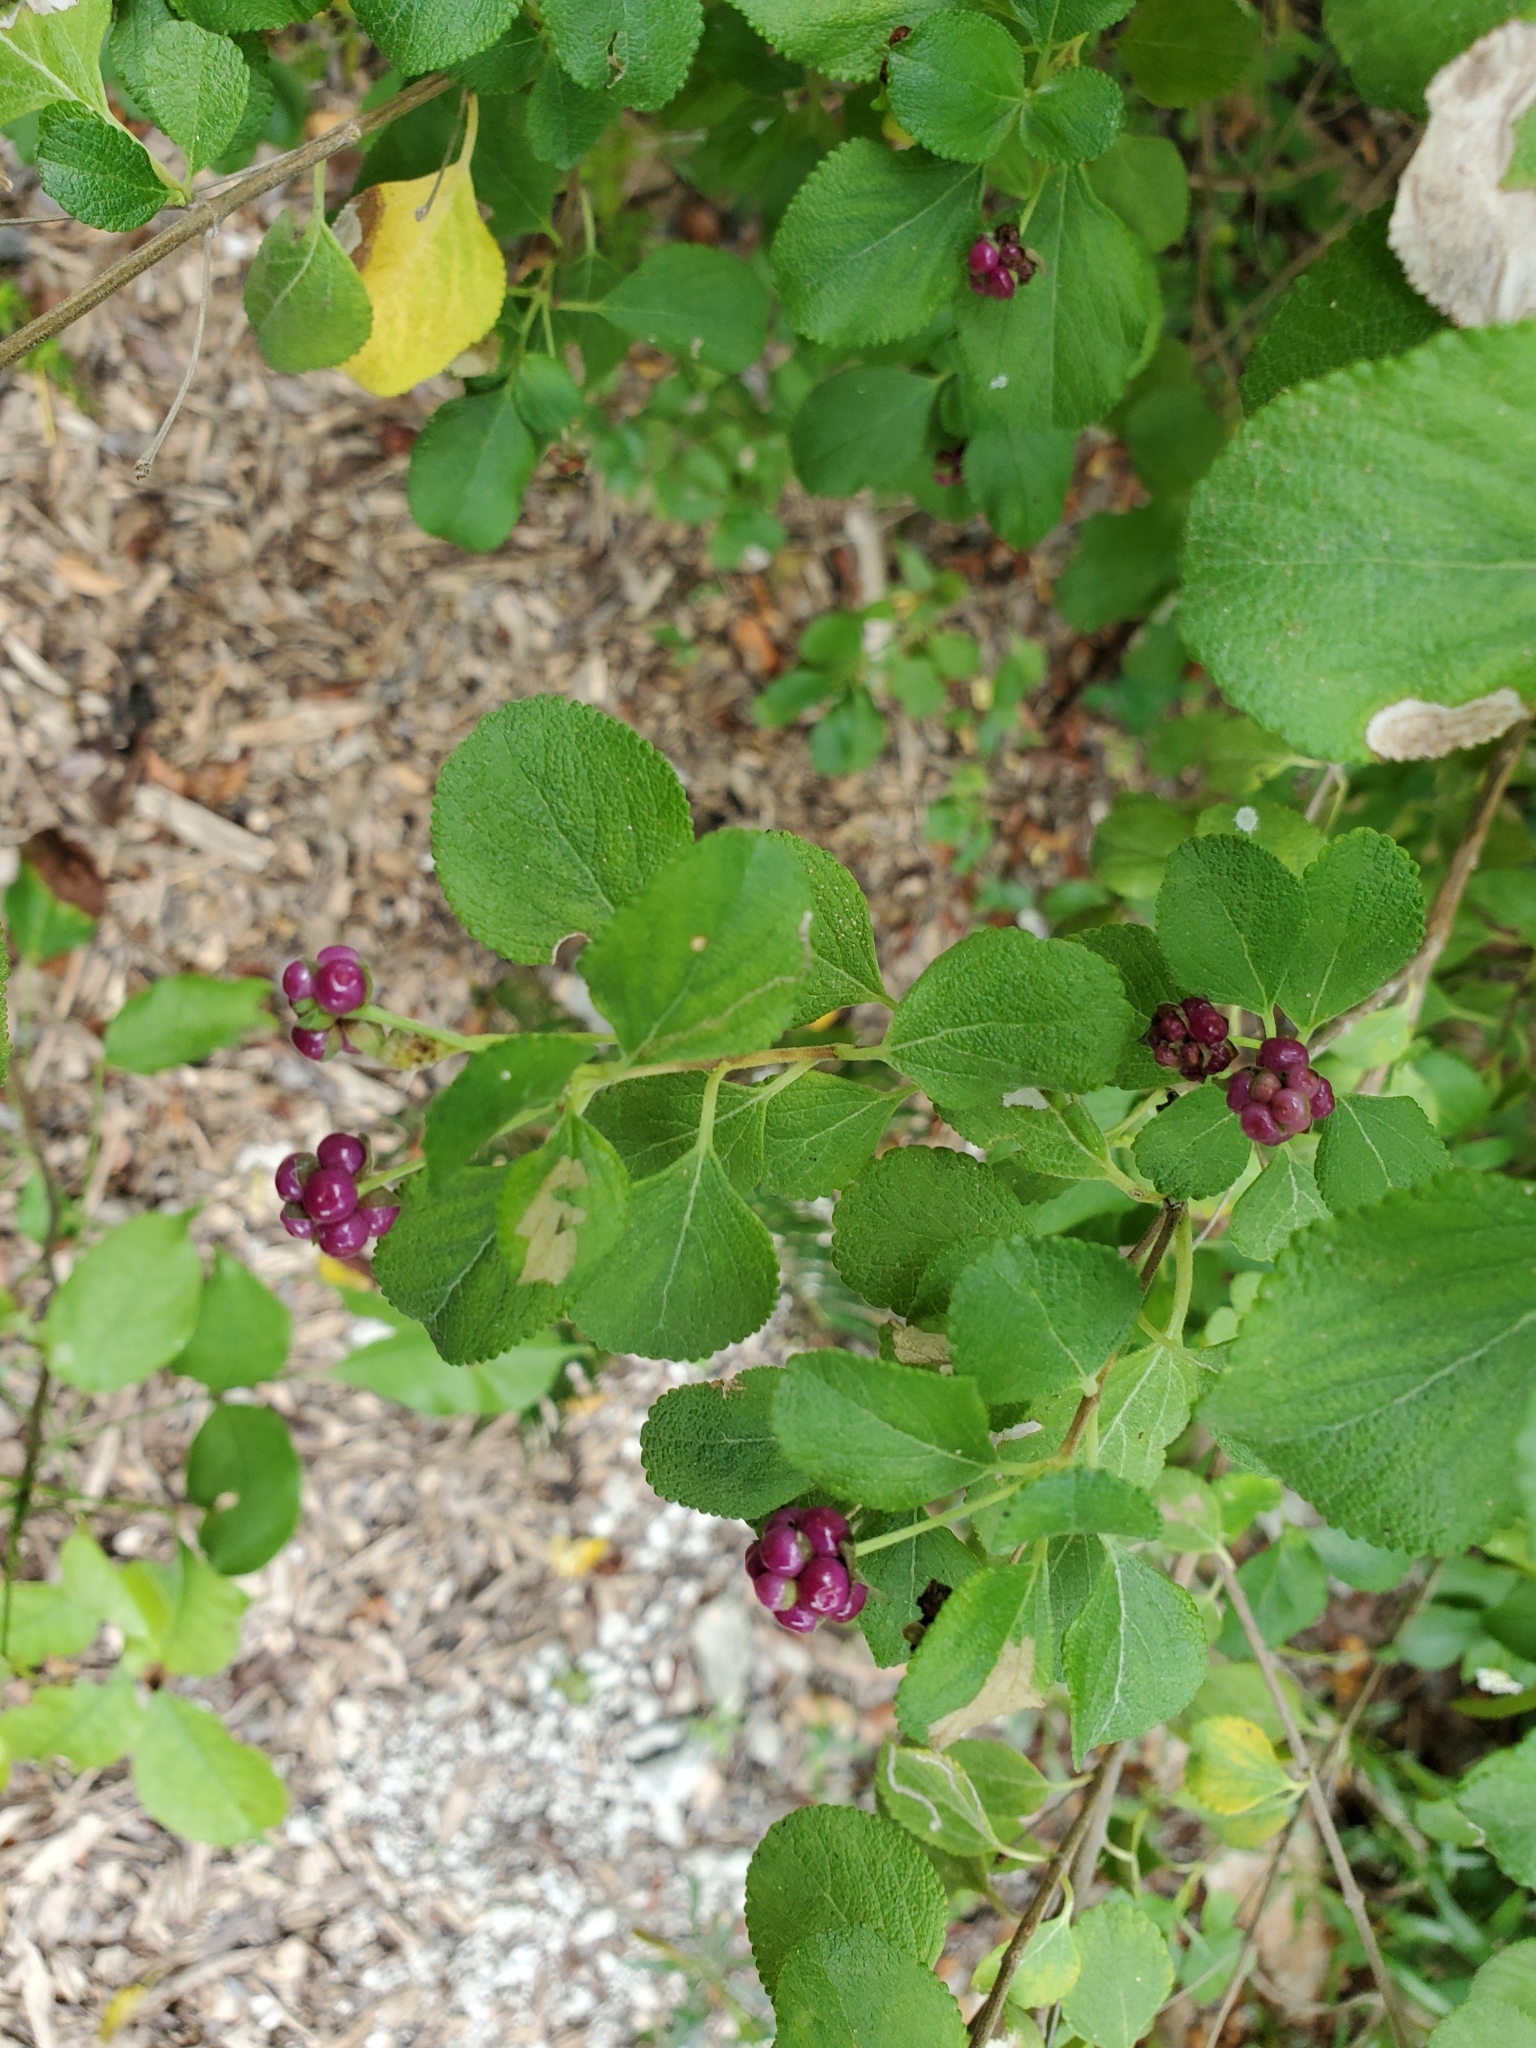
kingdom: Plantae
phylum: Tracheophyta
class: Magnoliopsida
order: Lamiales
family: Verbenaceae
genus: Lantana
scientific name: Lantana involucrata
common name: Black sage
